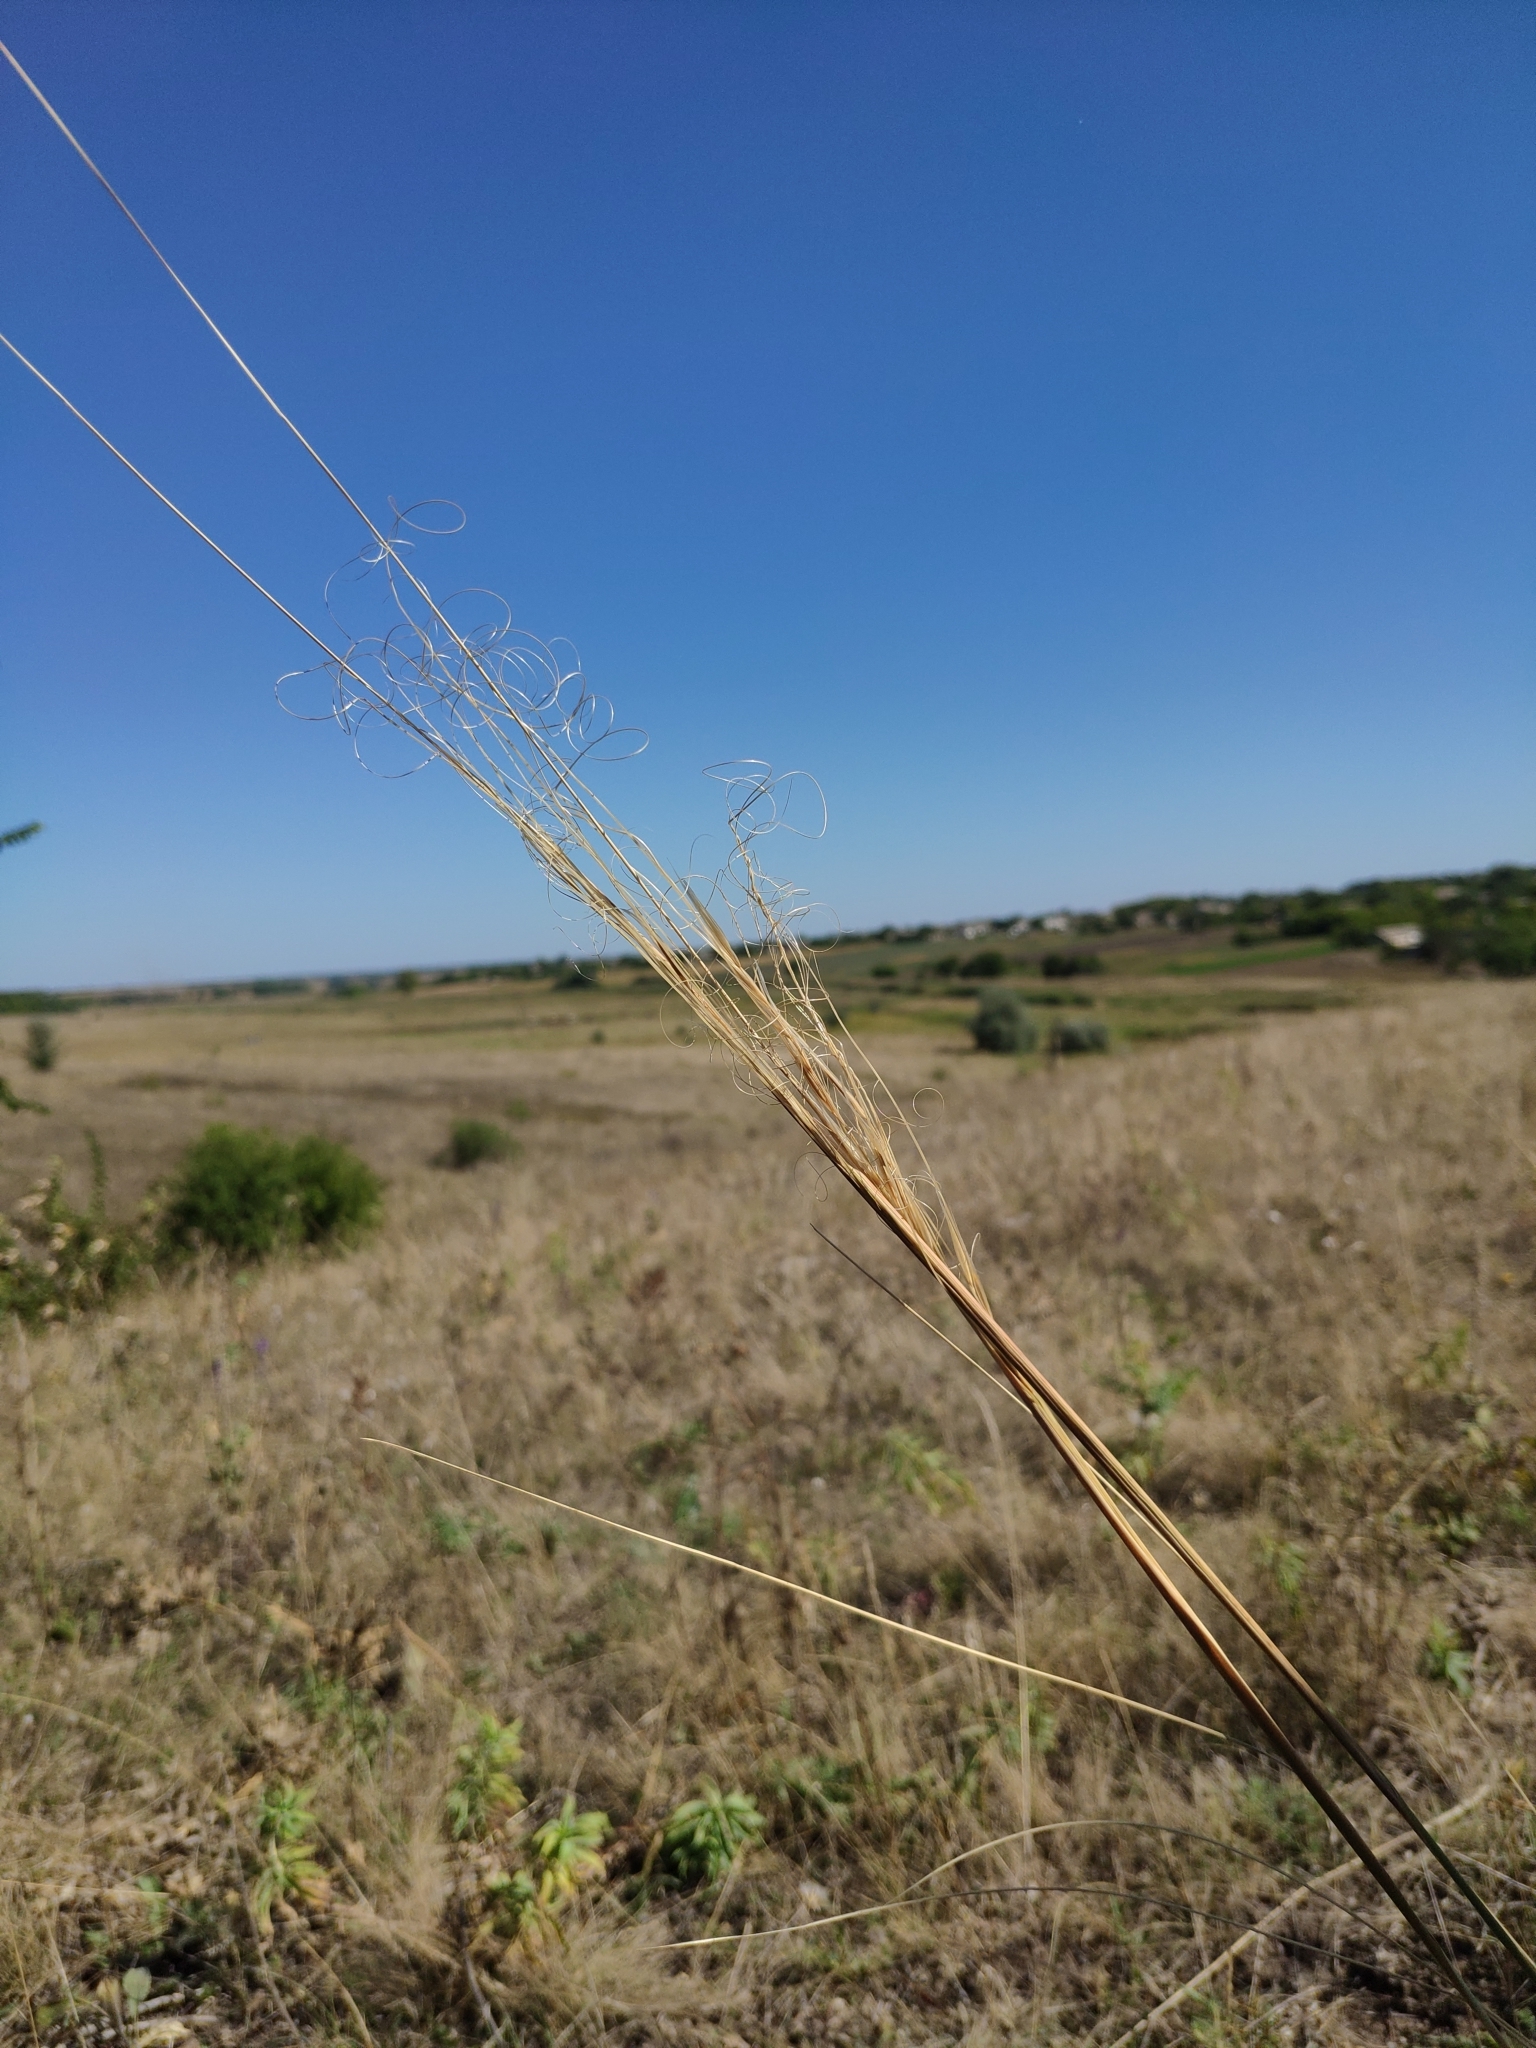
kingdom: Plantae
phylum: Tracheophyta
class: Liliopsida
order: Poales
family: Poaceae
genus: Stipa
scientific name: Stipa capillata
